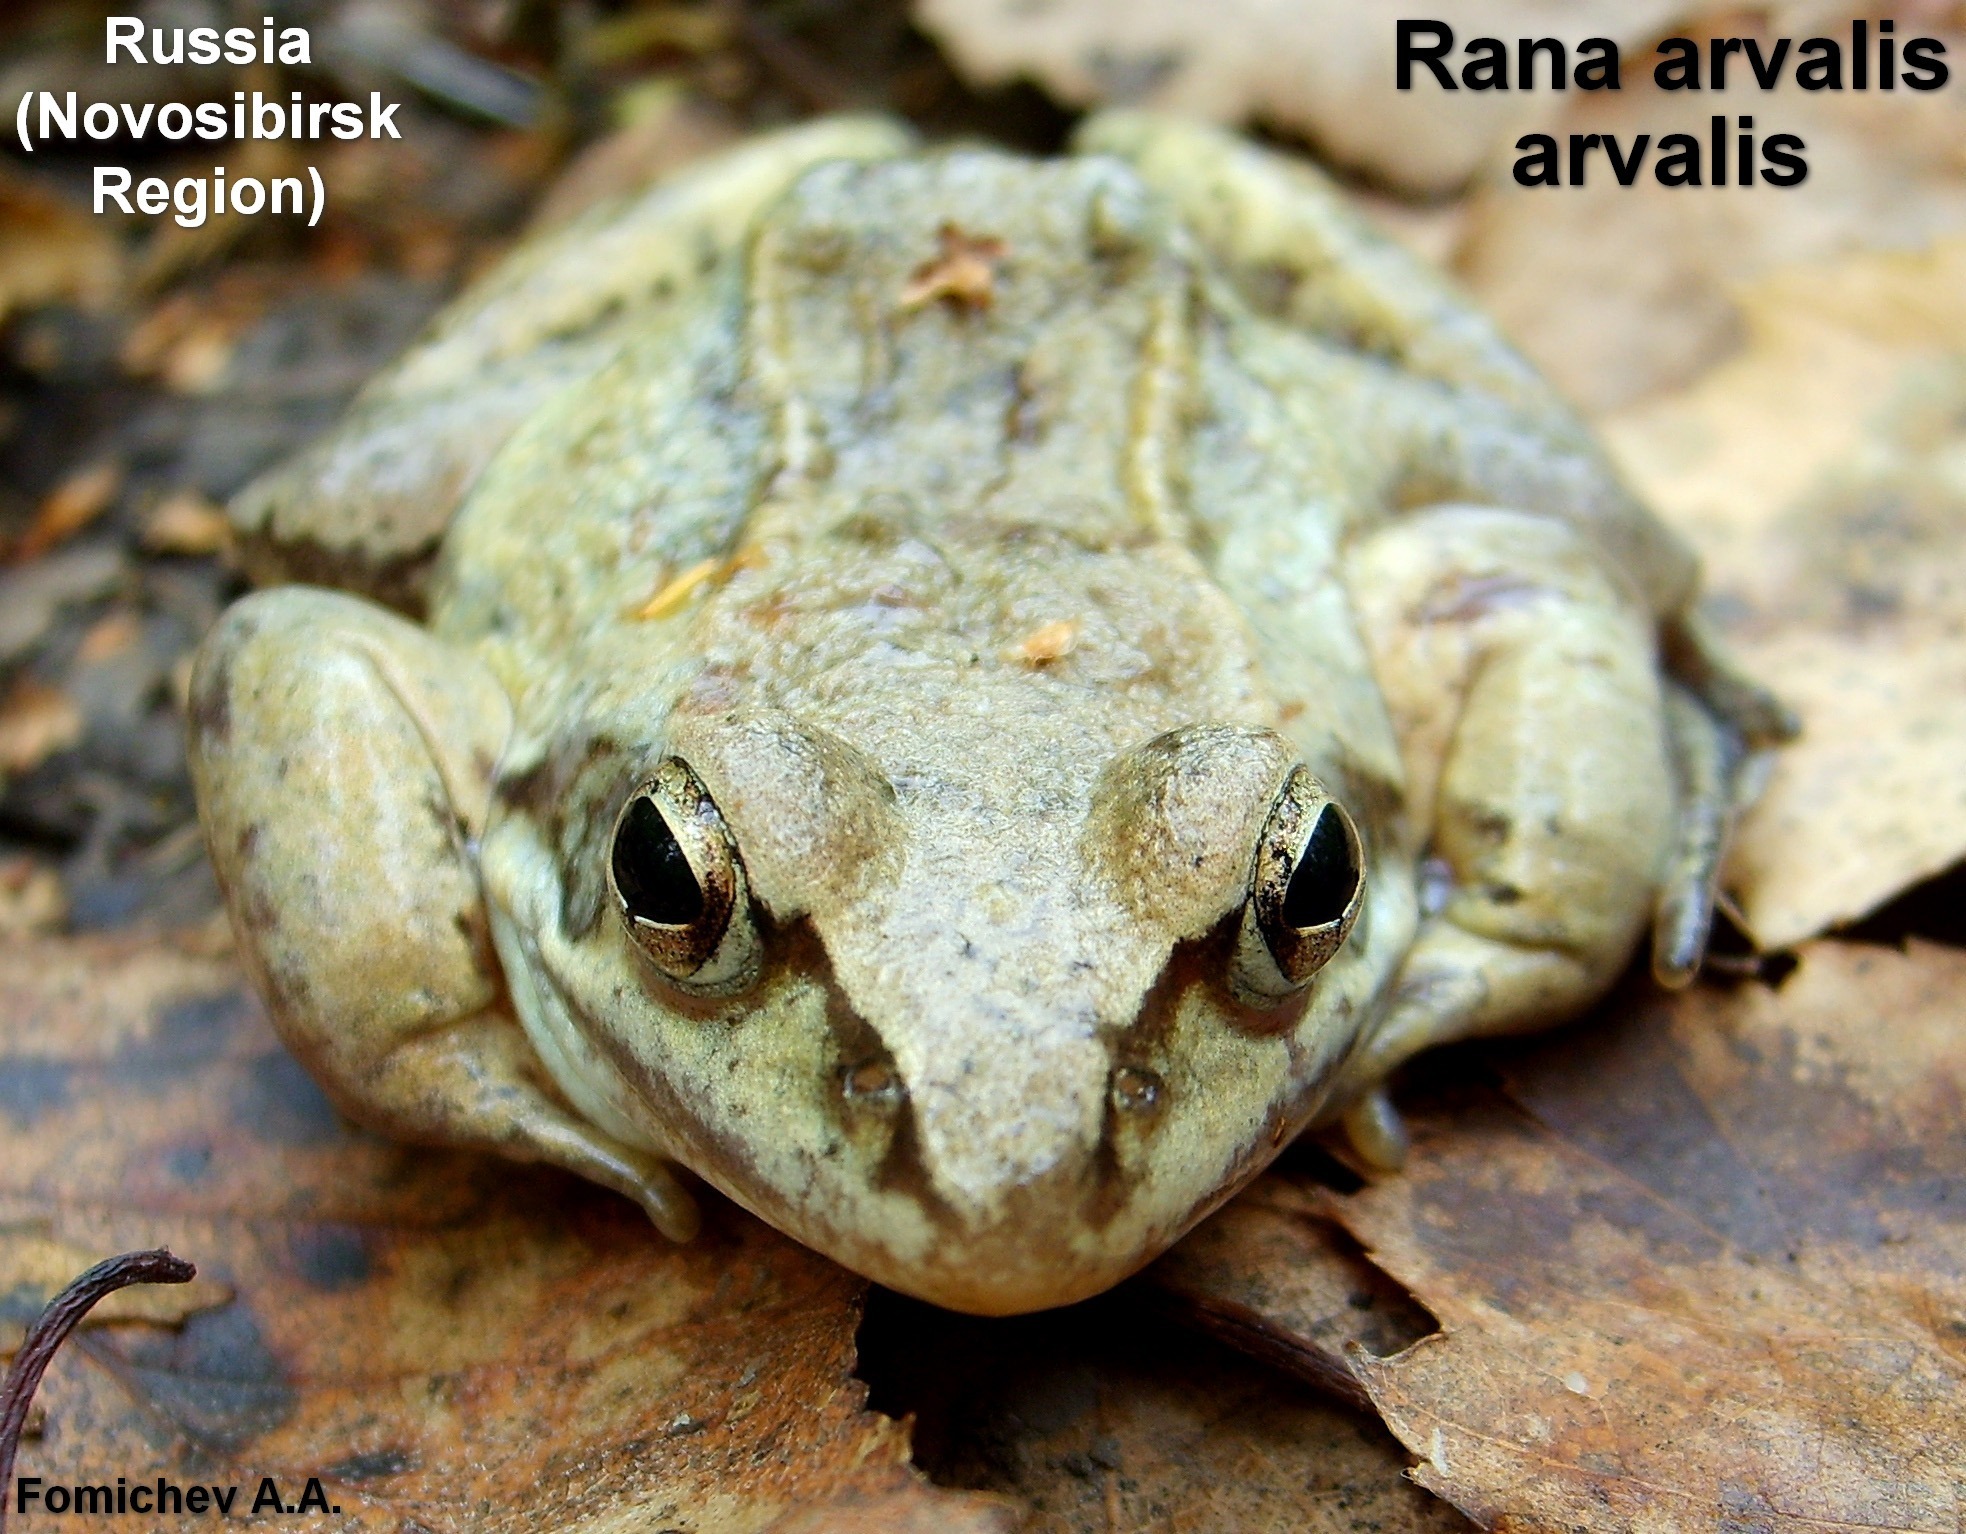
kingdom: Animalia
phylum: Chordata
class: Amphibia
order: Anura
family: Ranidae
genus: Rana
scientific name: Rana arvalis
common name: Moor frog
